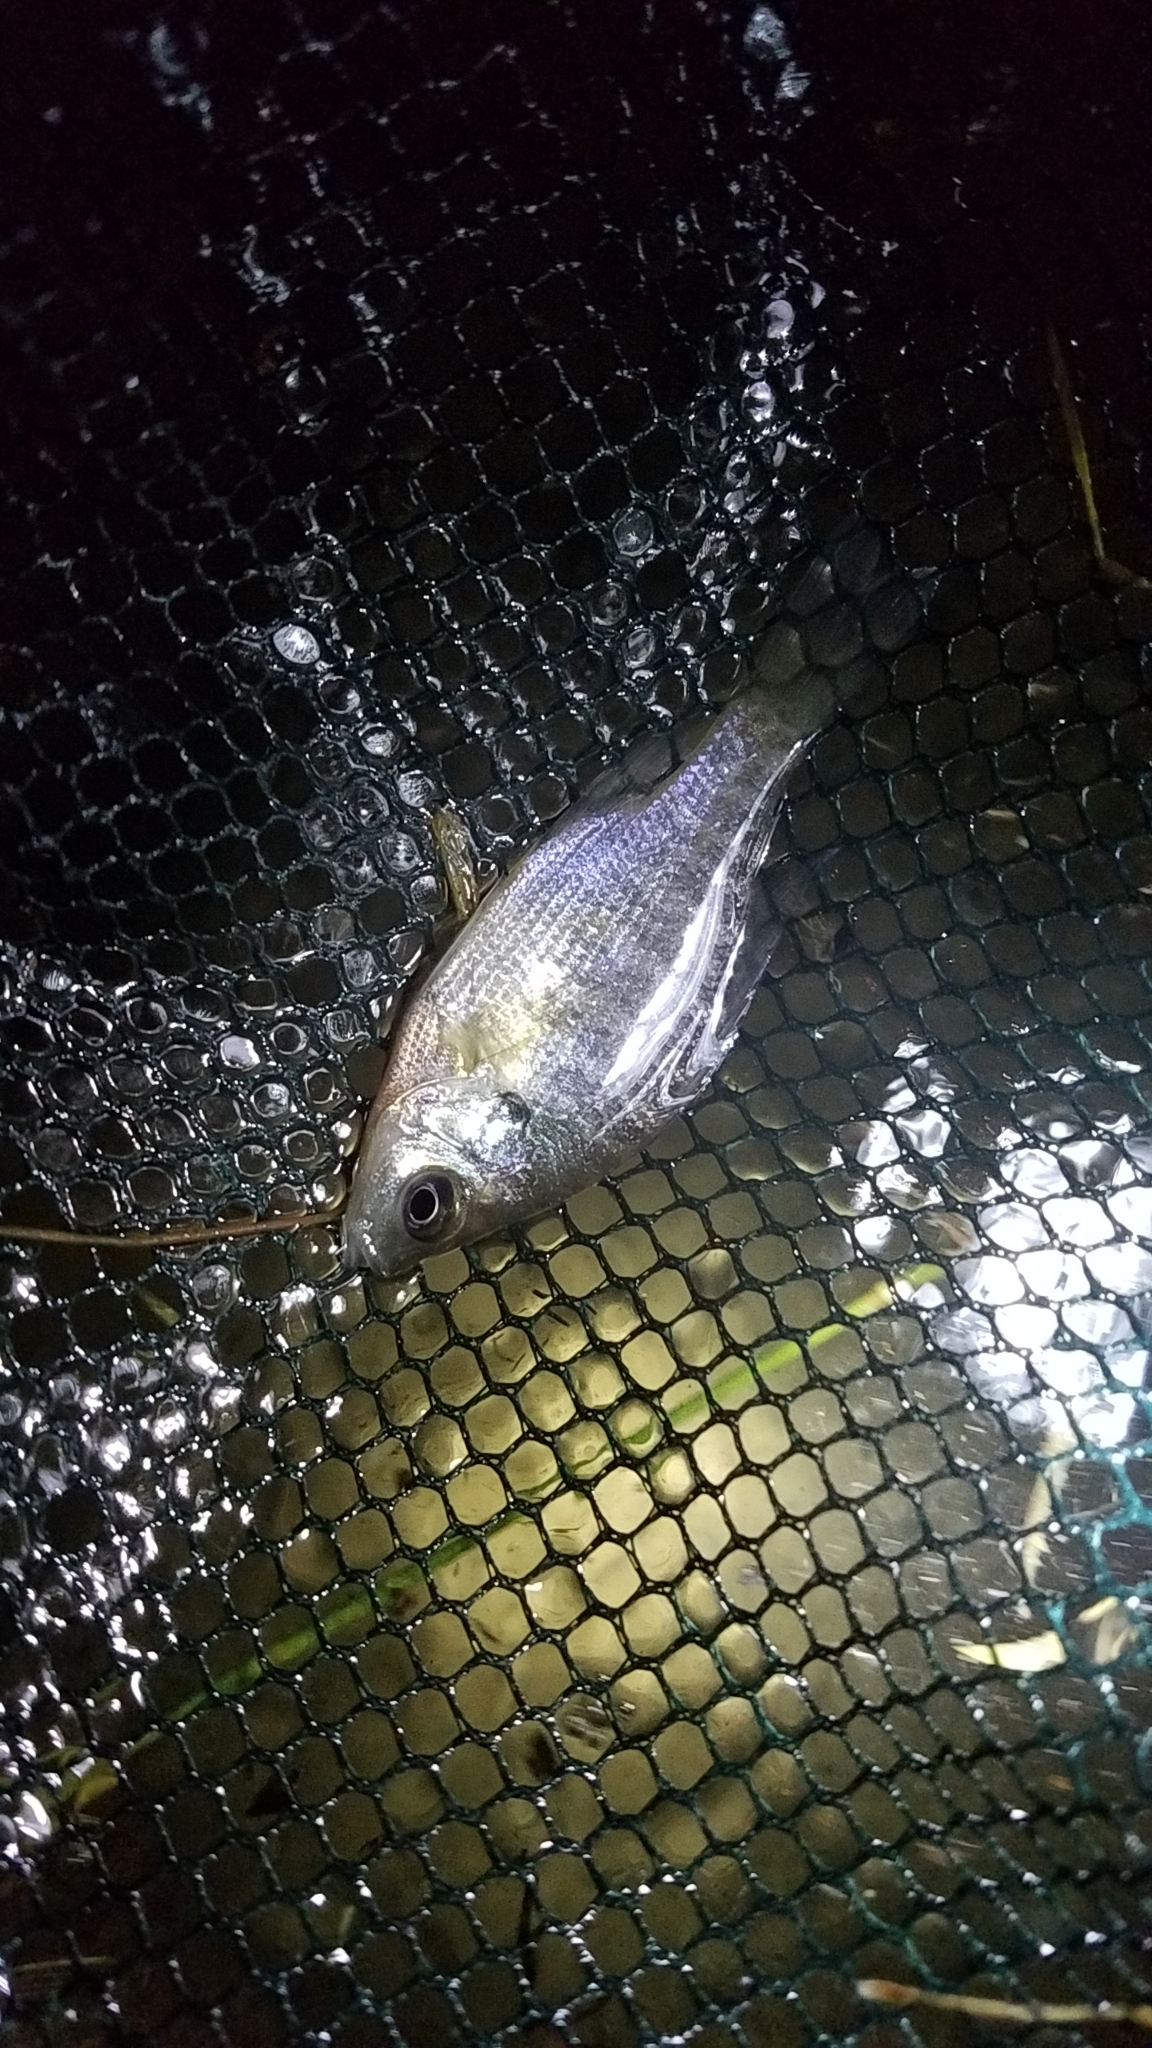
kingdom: Animalia
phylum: Chordata
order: Perciformes
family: Centrarchidae
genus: Lepomis
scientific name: Lepomis macrochirus
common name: Bluegill
